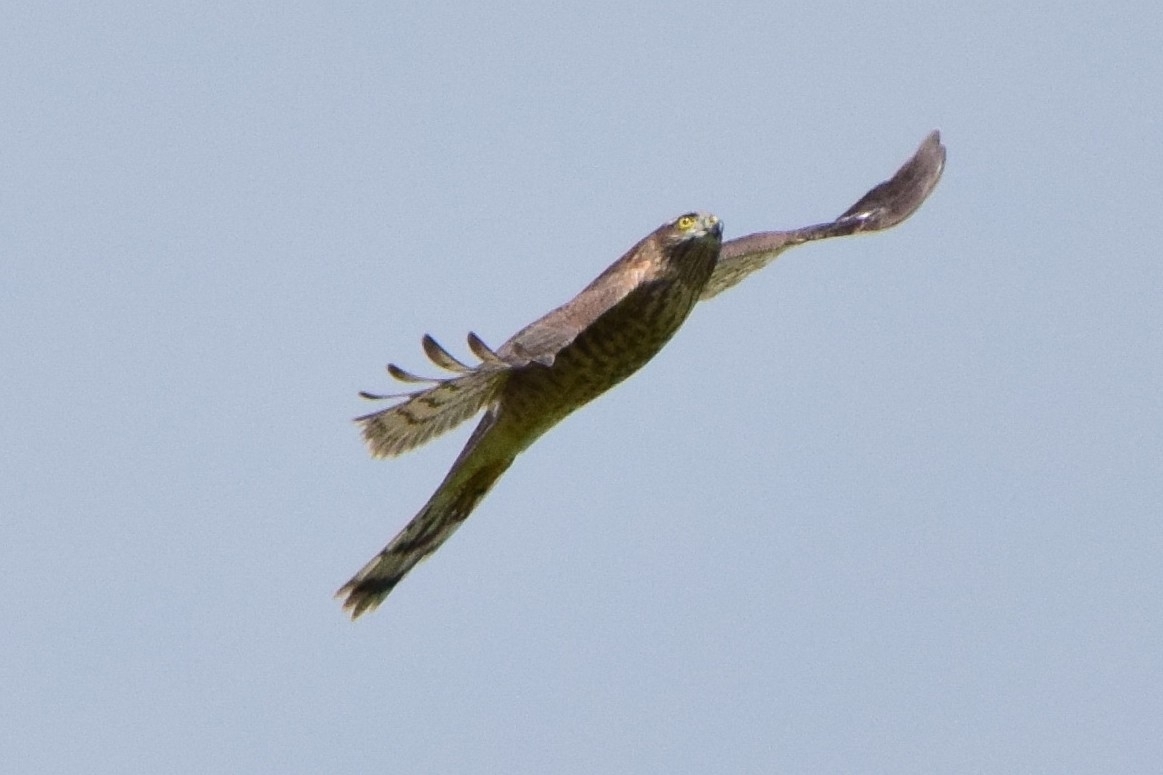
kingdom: Animalia
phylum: Chordata
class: Aves
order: Accipitriformes
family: Accipitridae
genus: Accipiter
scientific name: Accipiter nisus
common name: Eurasian sparrowhawk
